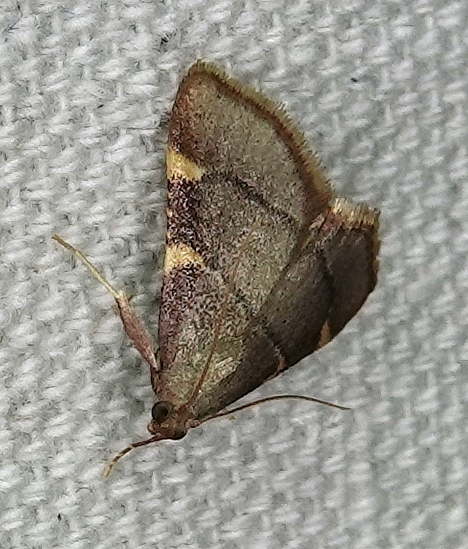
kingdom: Animalia
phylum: Arthropoda
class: Insecta
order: Lepidoptera
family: Pyralidae
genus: Hypsopygia
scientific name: Hypsopygia olinalis
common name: Yellow-fringed dolichomia moth
